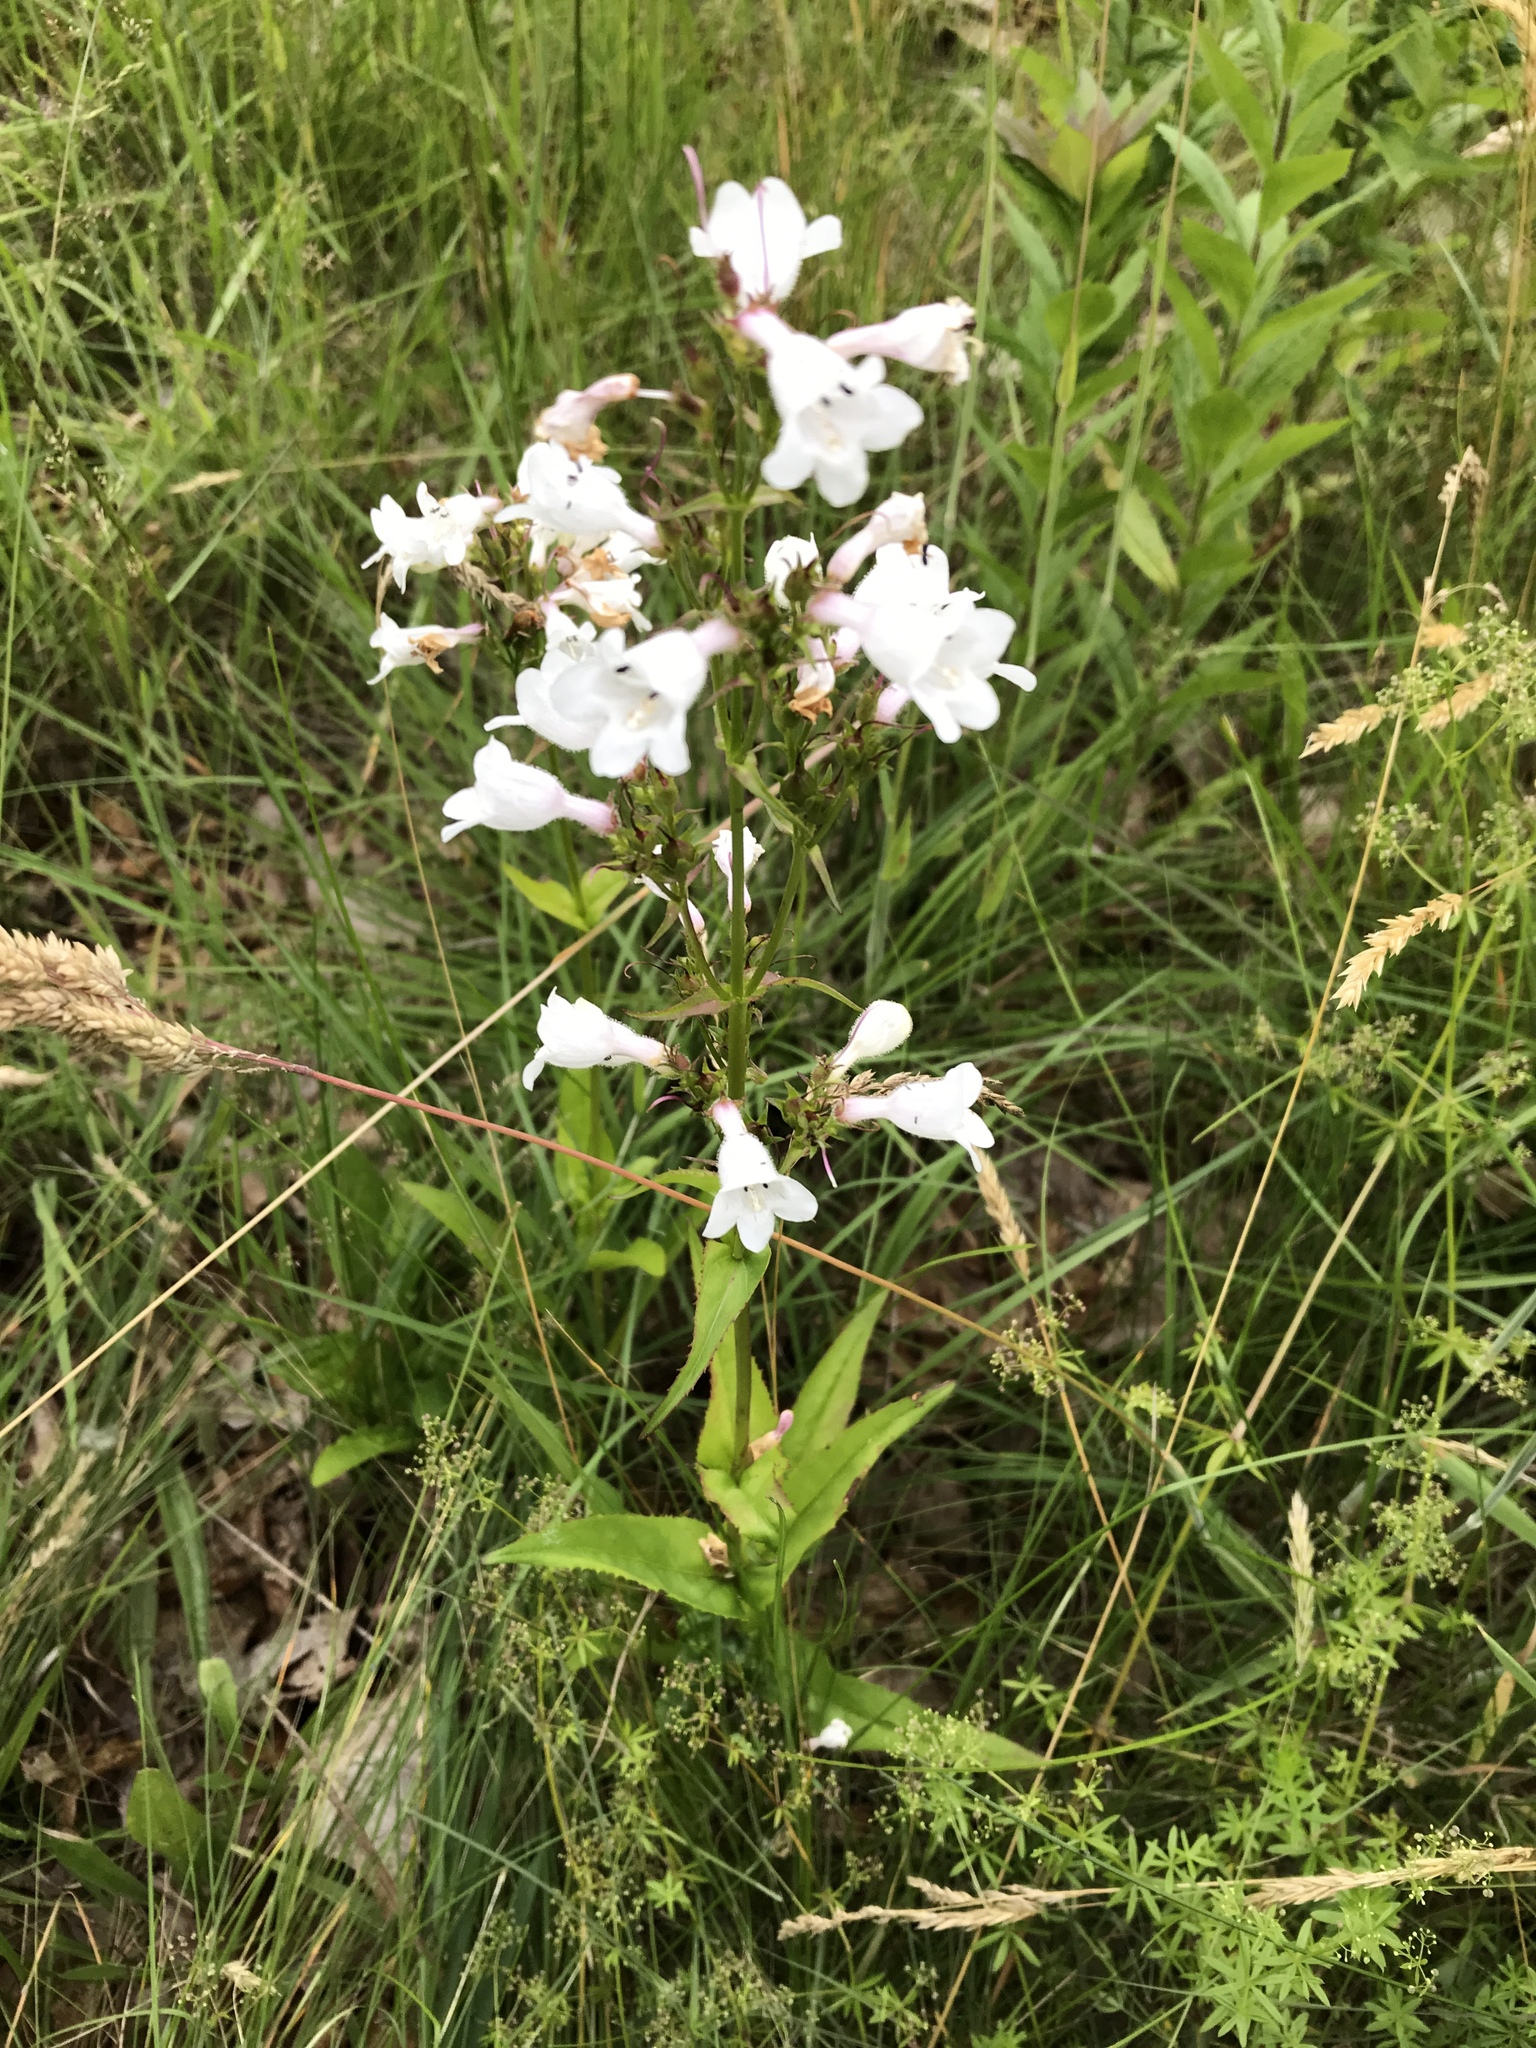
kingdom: Plantae
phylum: Tracheophyta
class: Magnoliopsida
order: Lamiales
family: Plantaginaceae
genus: Penstemon
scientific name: Penstemon digitalis
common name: Foxglove beardtongue
